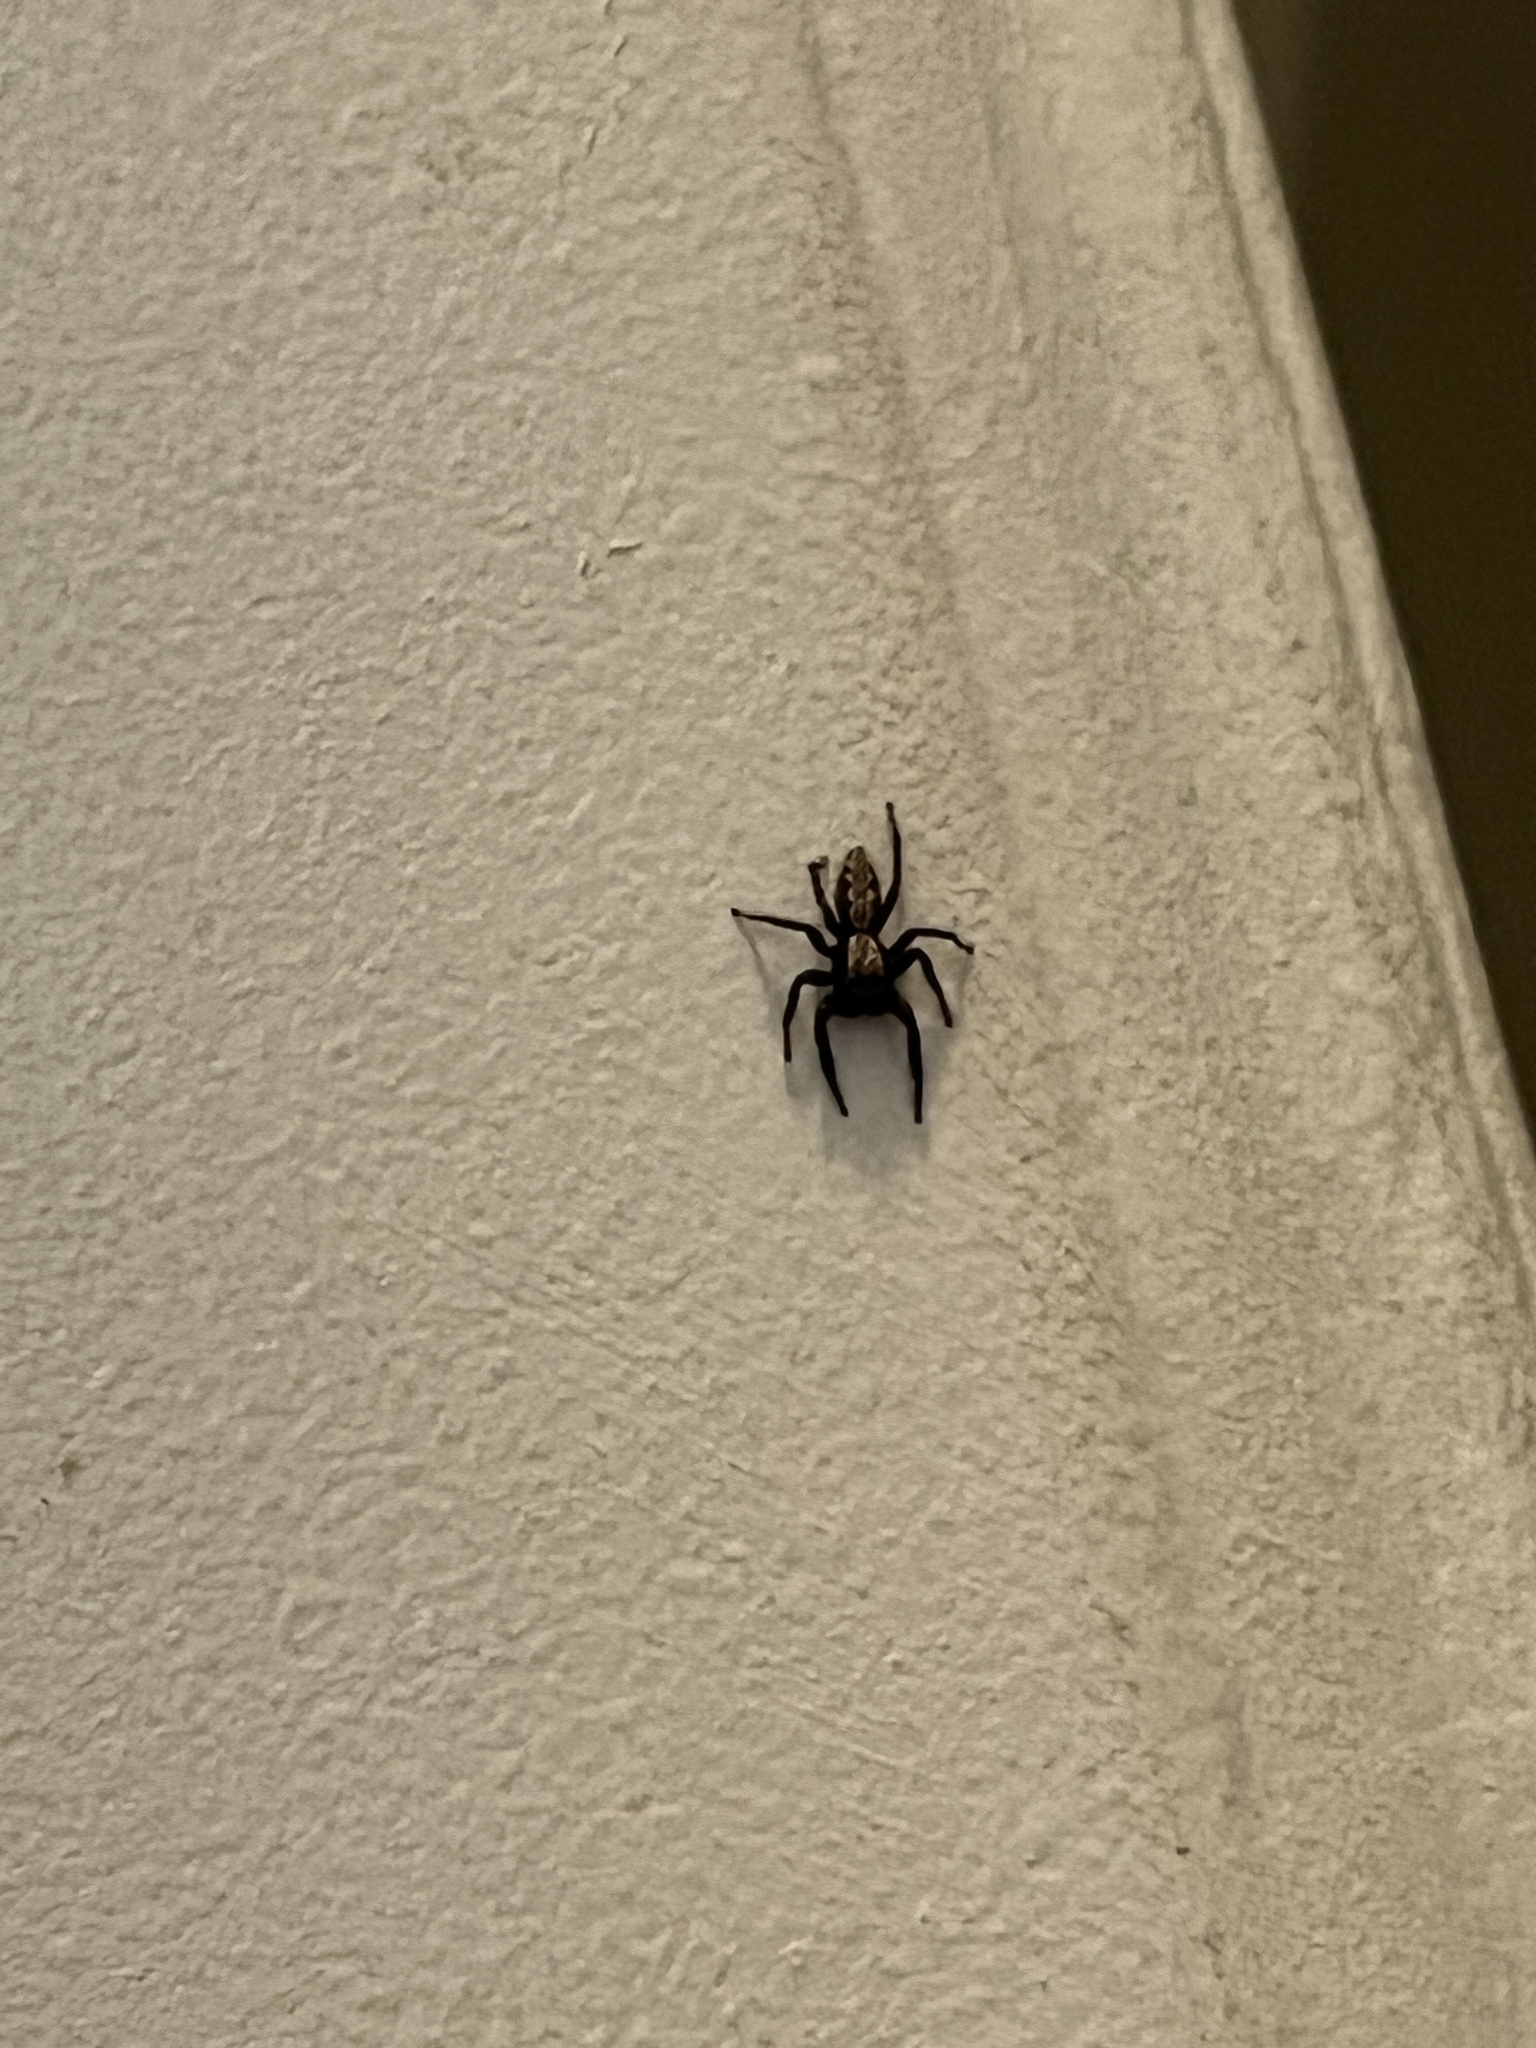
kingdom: Animalia
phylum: Arthropoda
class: Arachnida
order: Araneae
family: Salticidae
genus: Platycryptus
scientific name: Platycryptus californicus
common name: Jumping spiders
